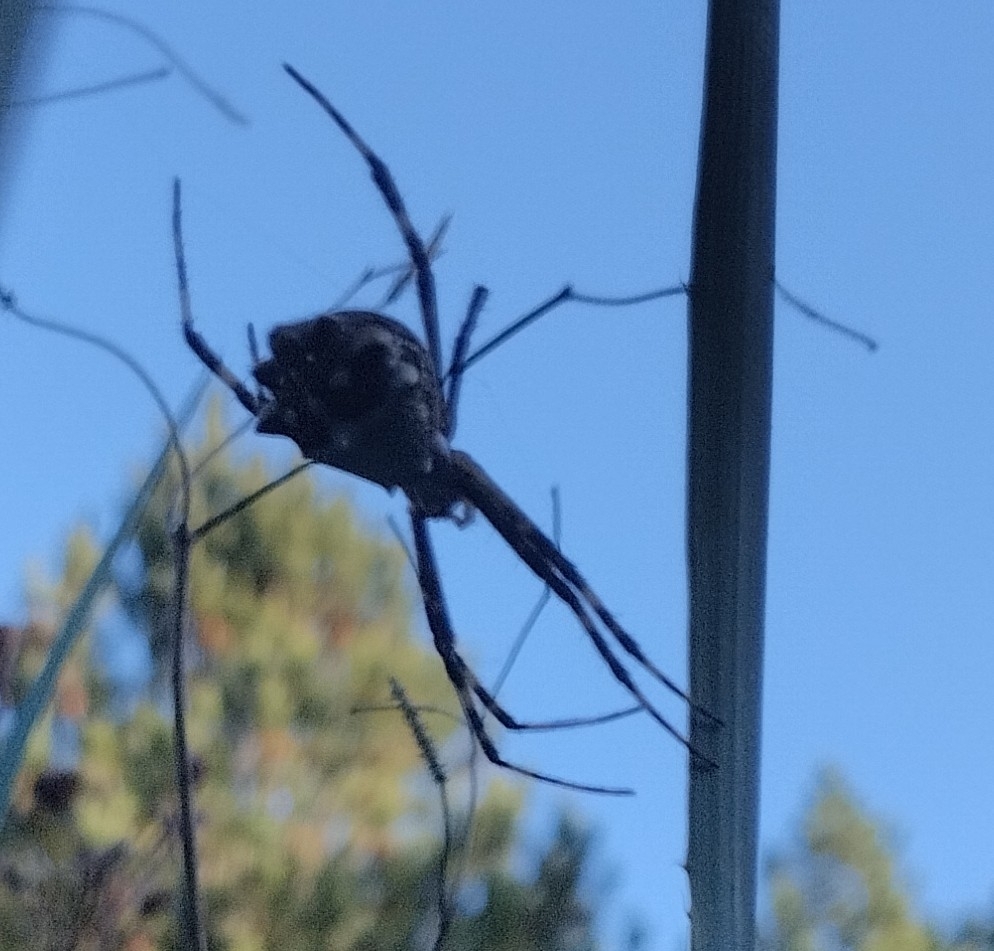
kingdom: Animalia
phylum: Arthropoda
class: Arachnida
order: Araneae
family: Araneidae
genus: Argiope
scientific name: Argiope argentata
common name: Orb weavers
